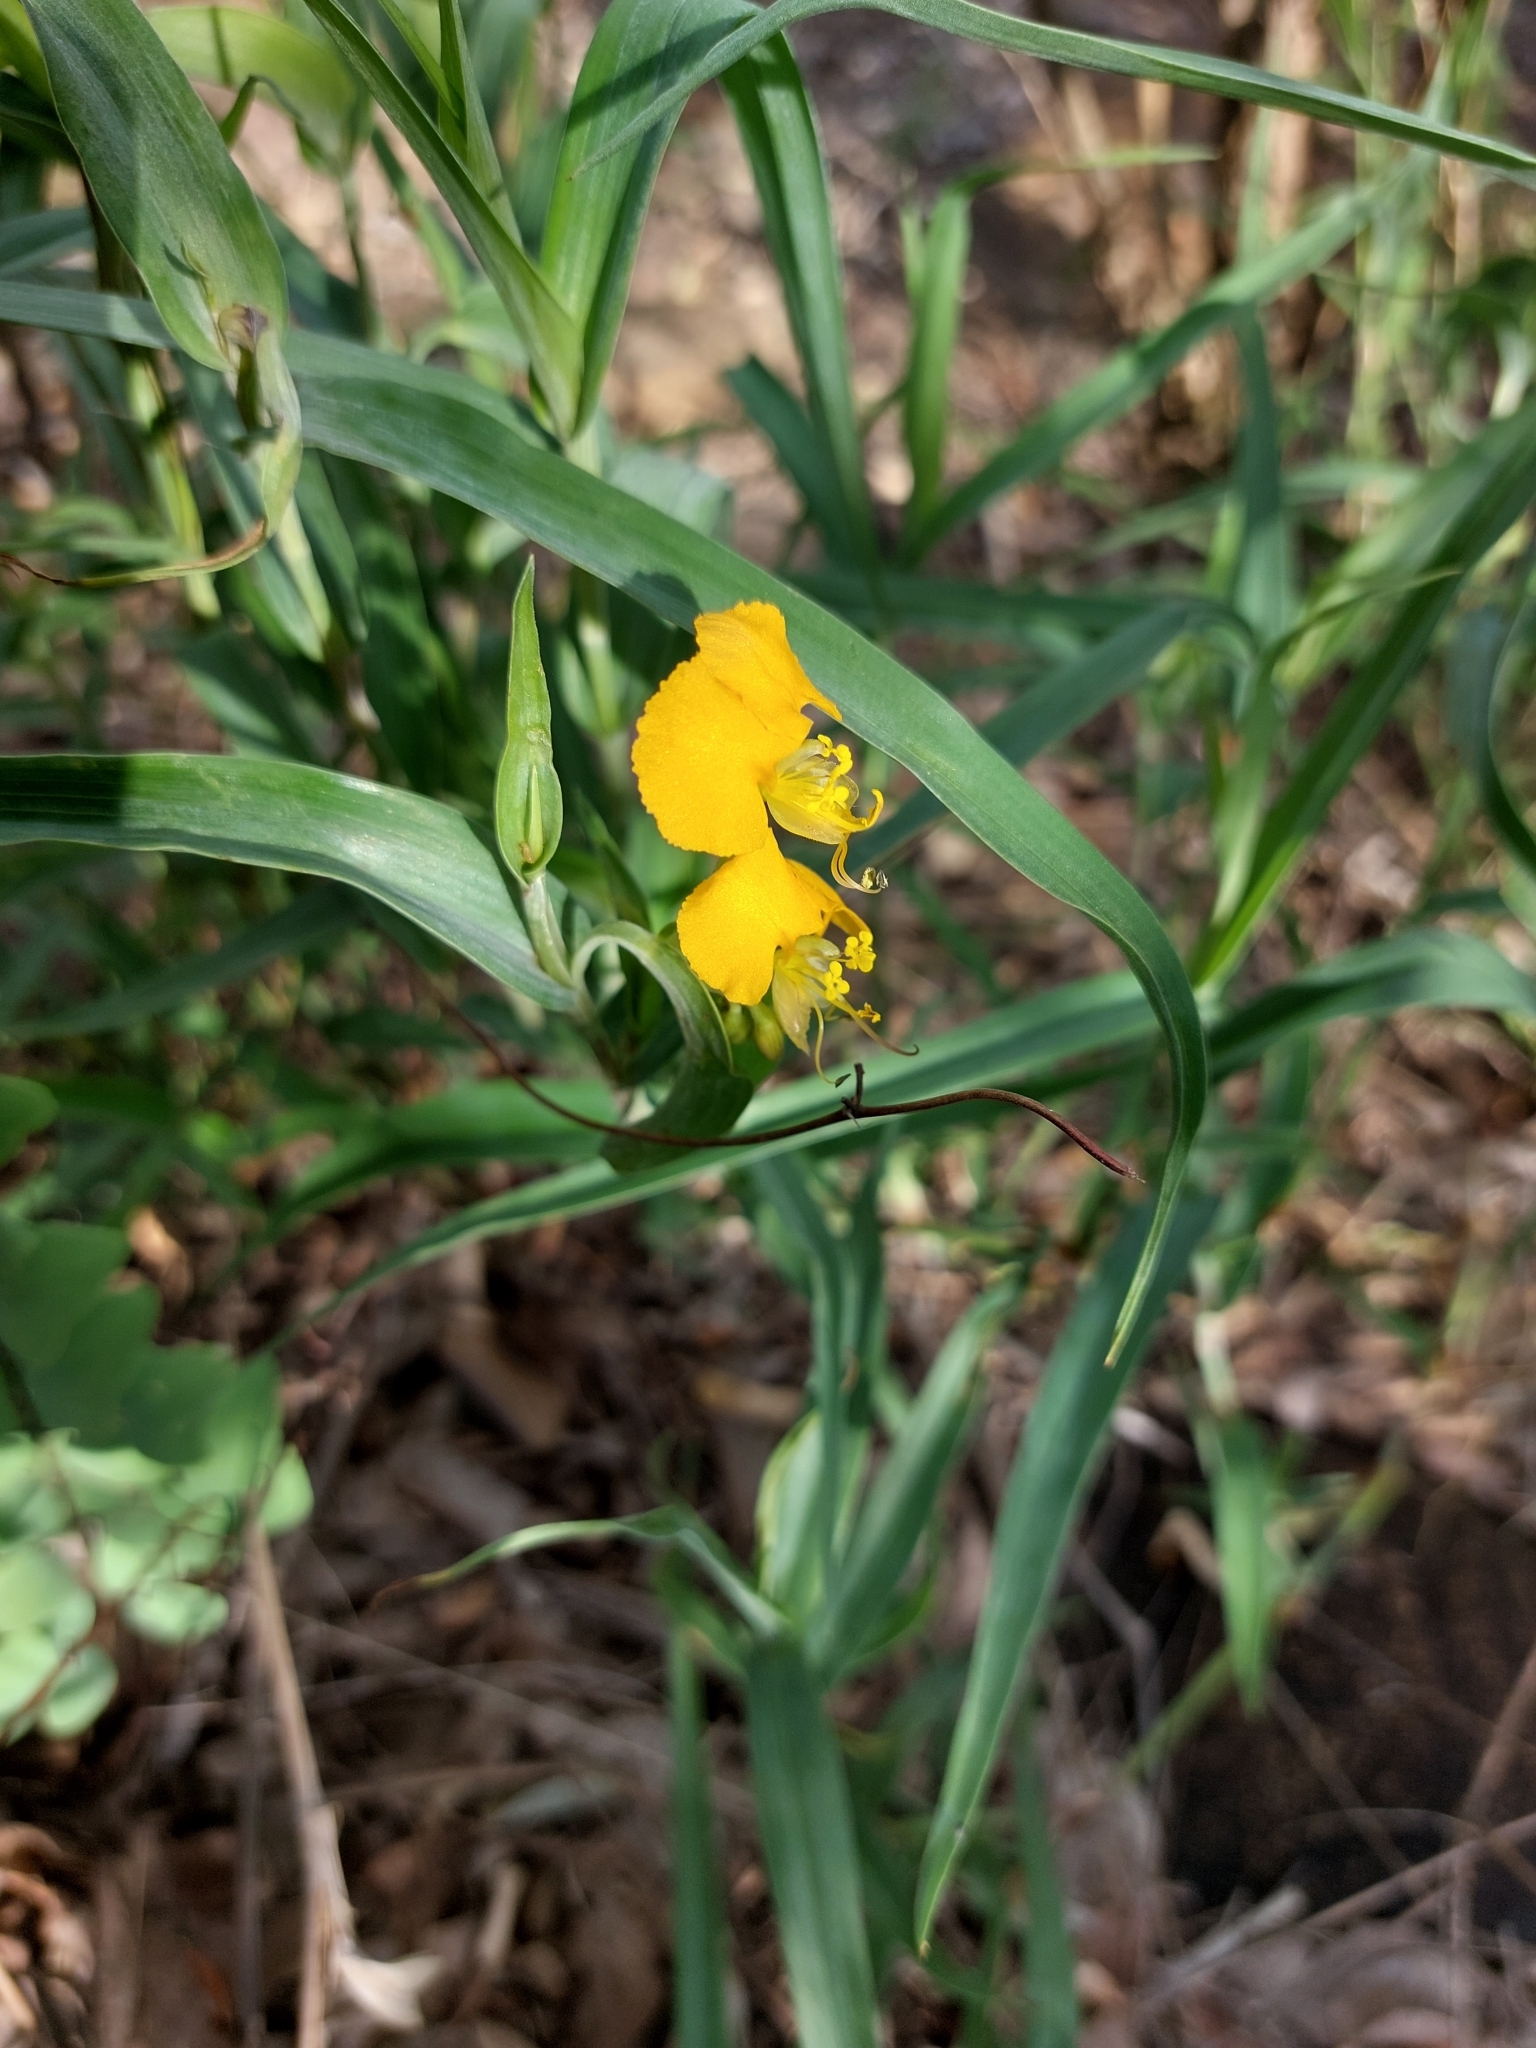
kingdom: Plantae
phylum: Tracheophyta
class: Liliopsida
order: Commelinales
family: Commelinaceae
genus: Commelina
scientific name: Commelina africana
